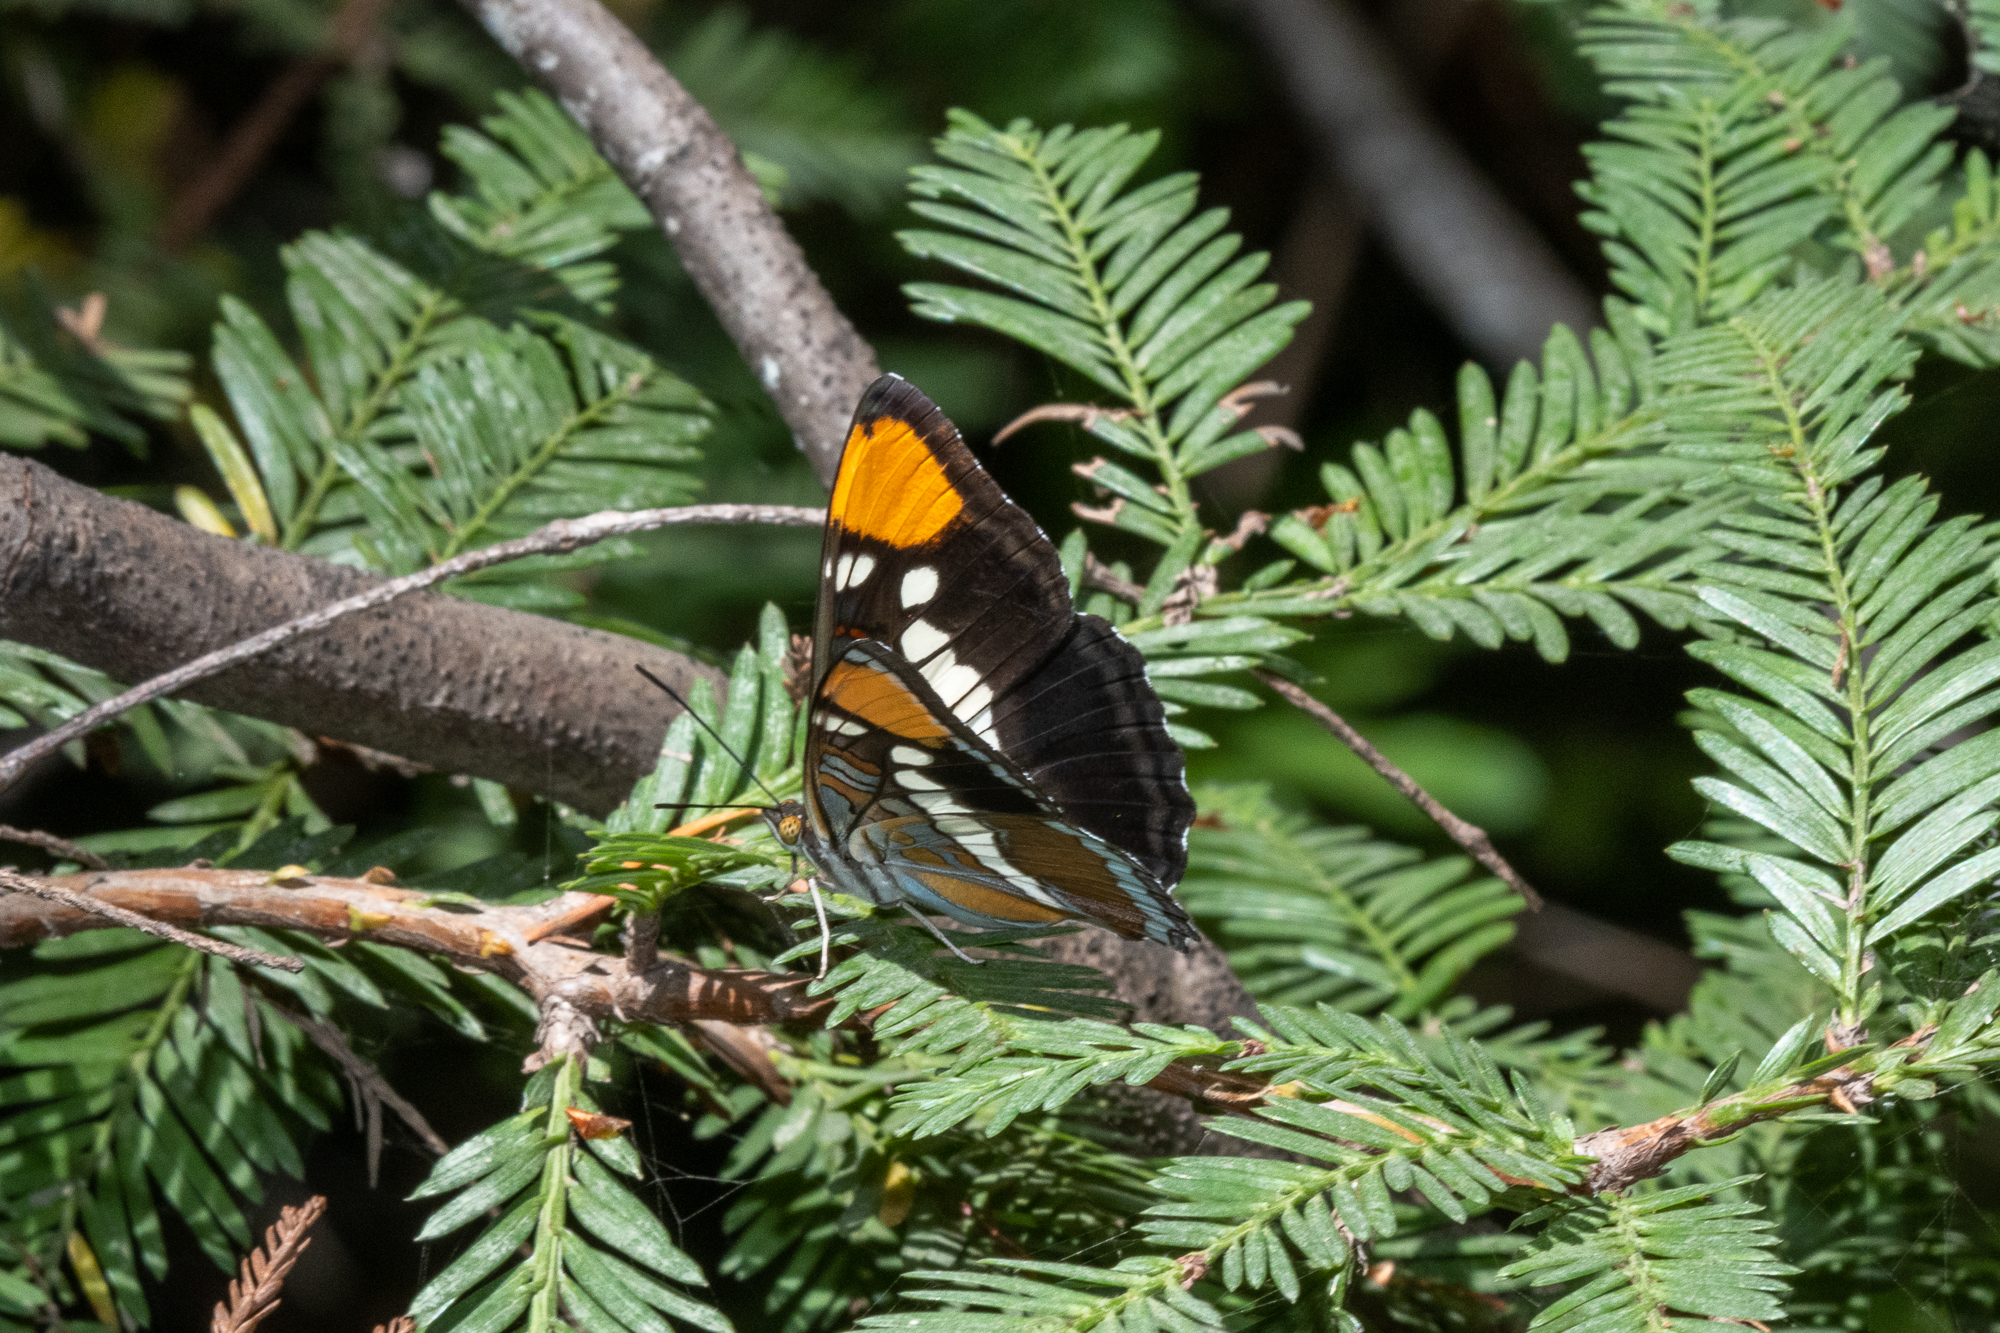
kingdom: Animalia
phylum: Arthropoda
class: Insecta
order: Lepidoptera
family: Nymphalidae
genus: Limenitis
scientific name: Limenitis bredowii
